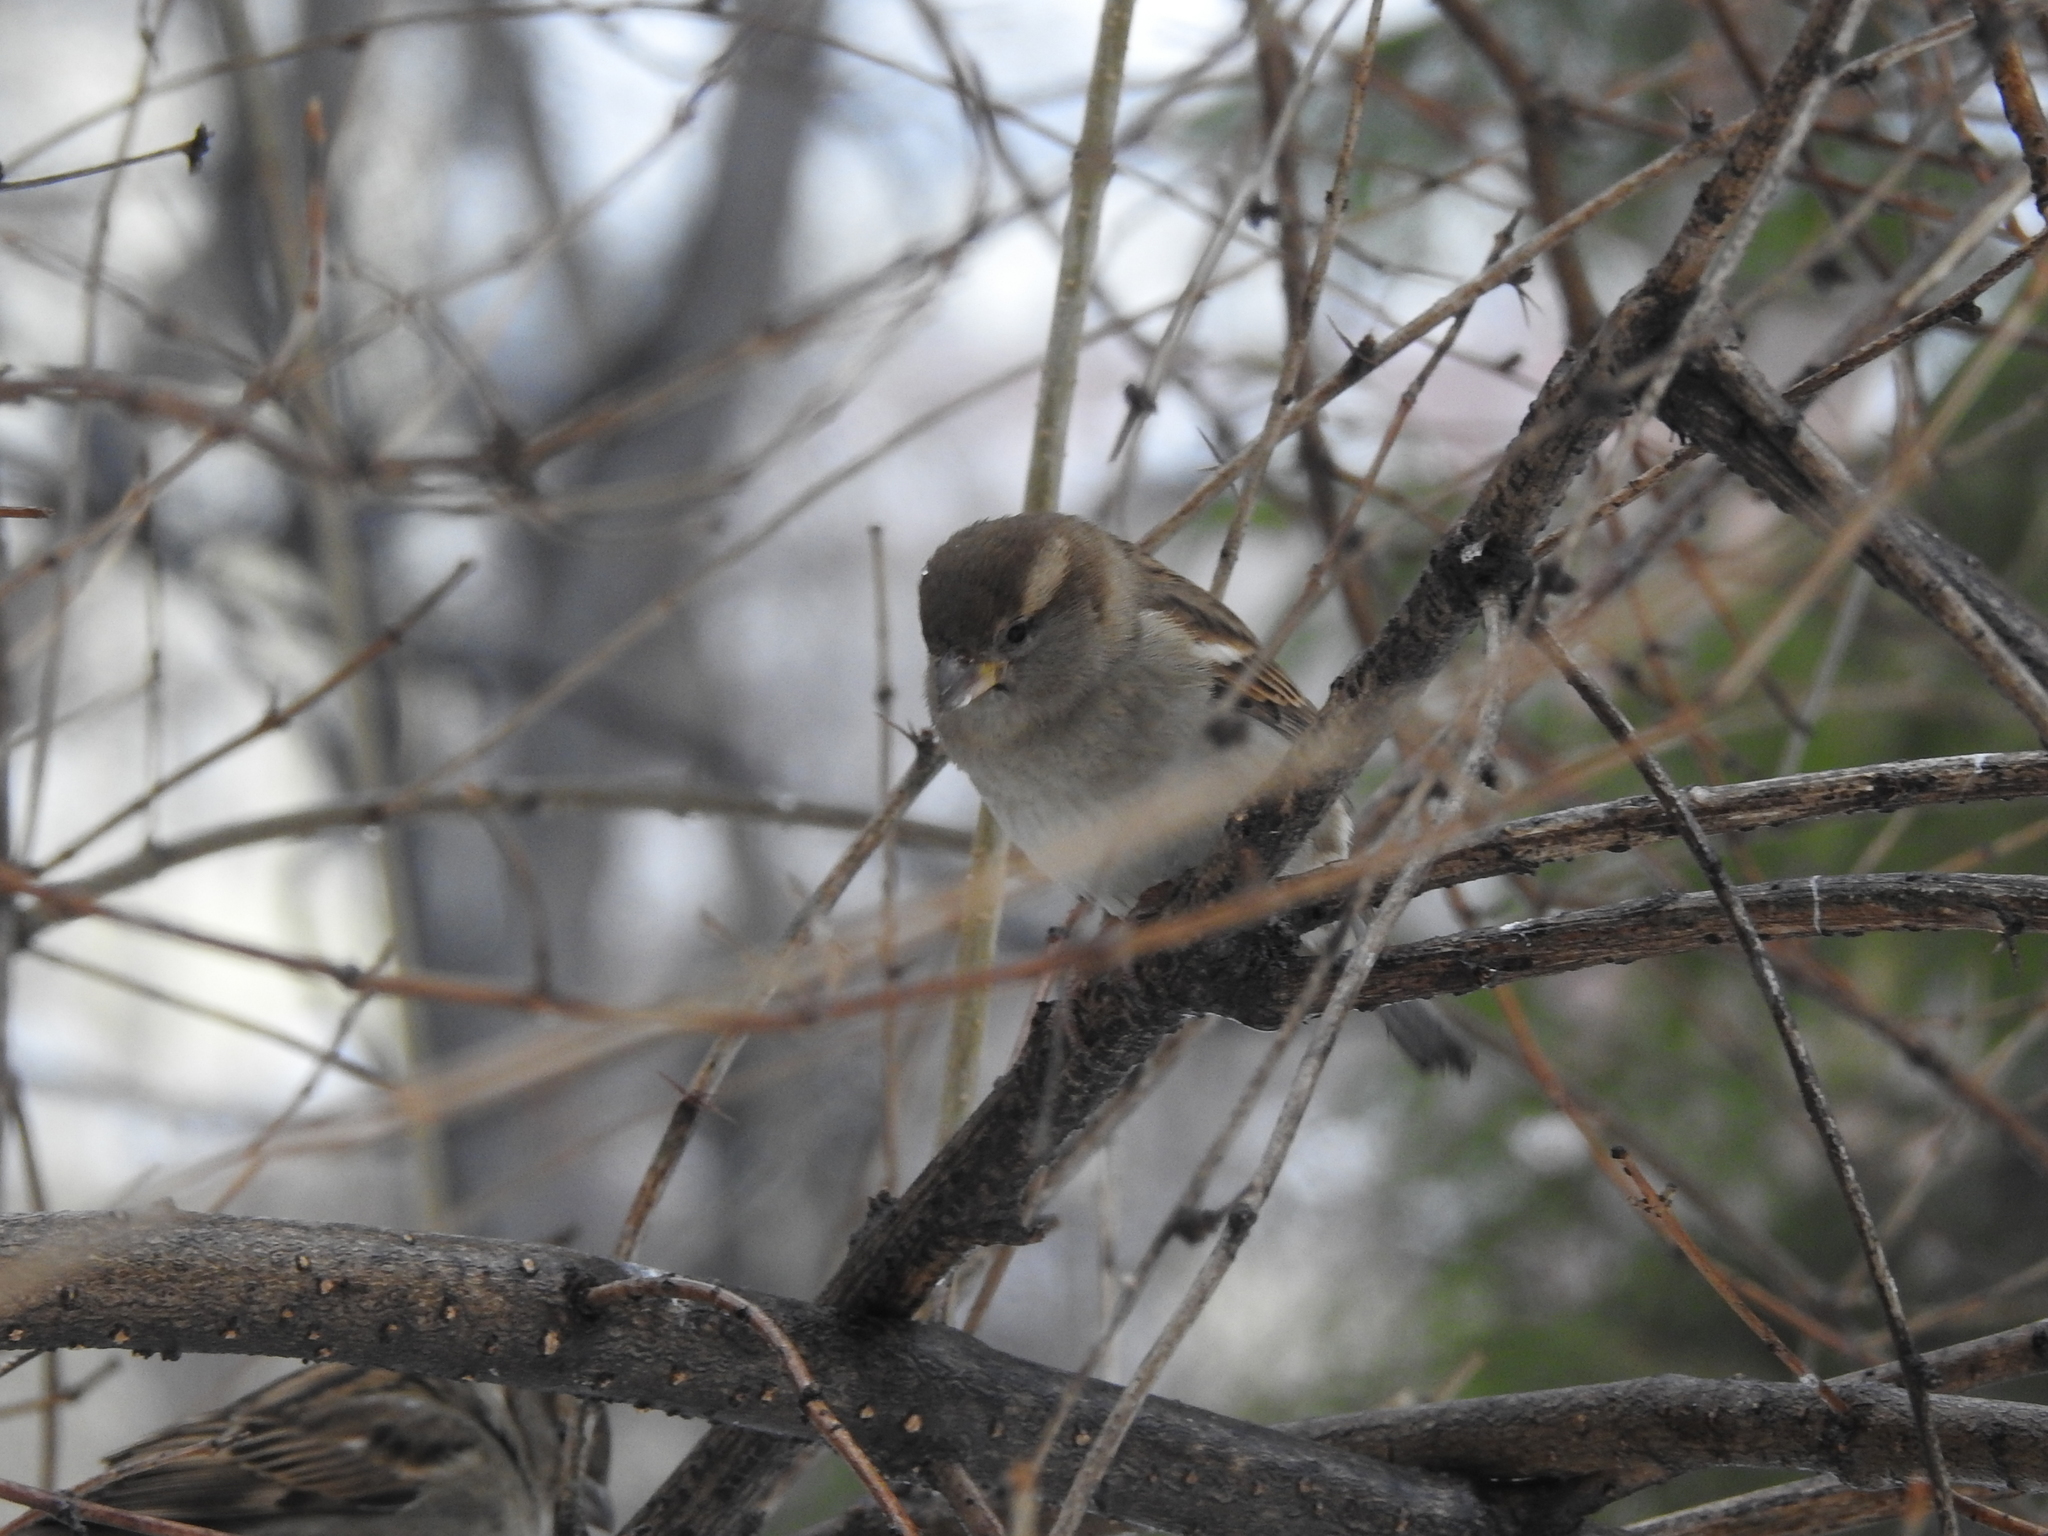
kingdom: Animalia
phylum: Chordata
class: Aves
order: Passeriformes
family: Passeridae
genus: Passer
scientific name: Passer domesticus
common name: House sparrow
